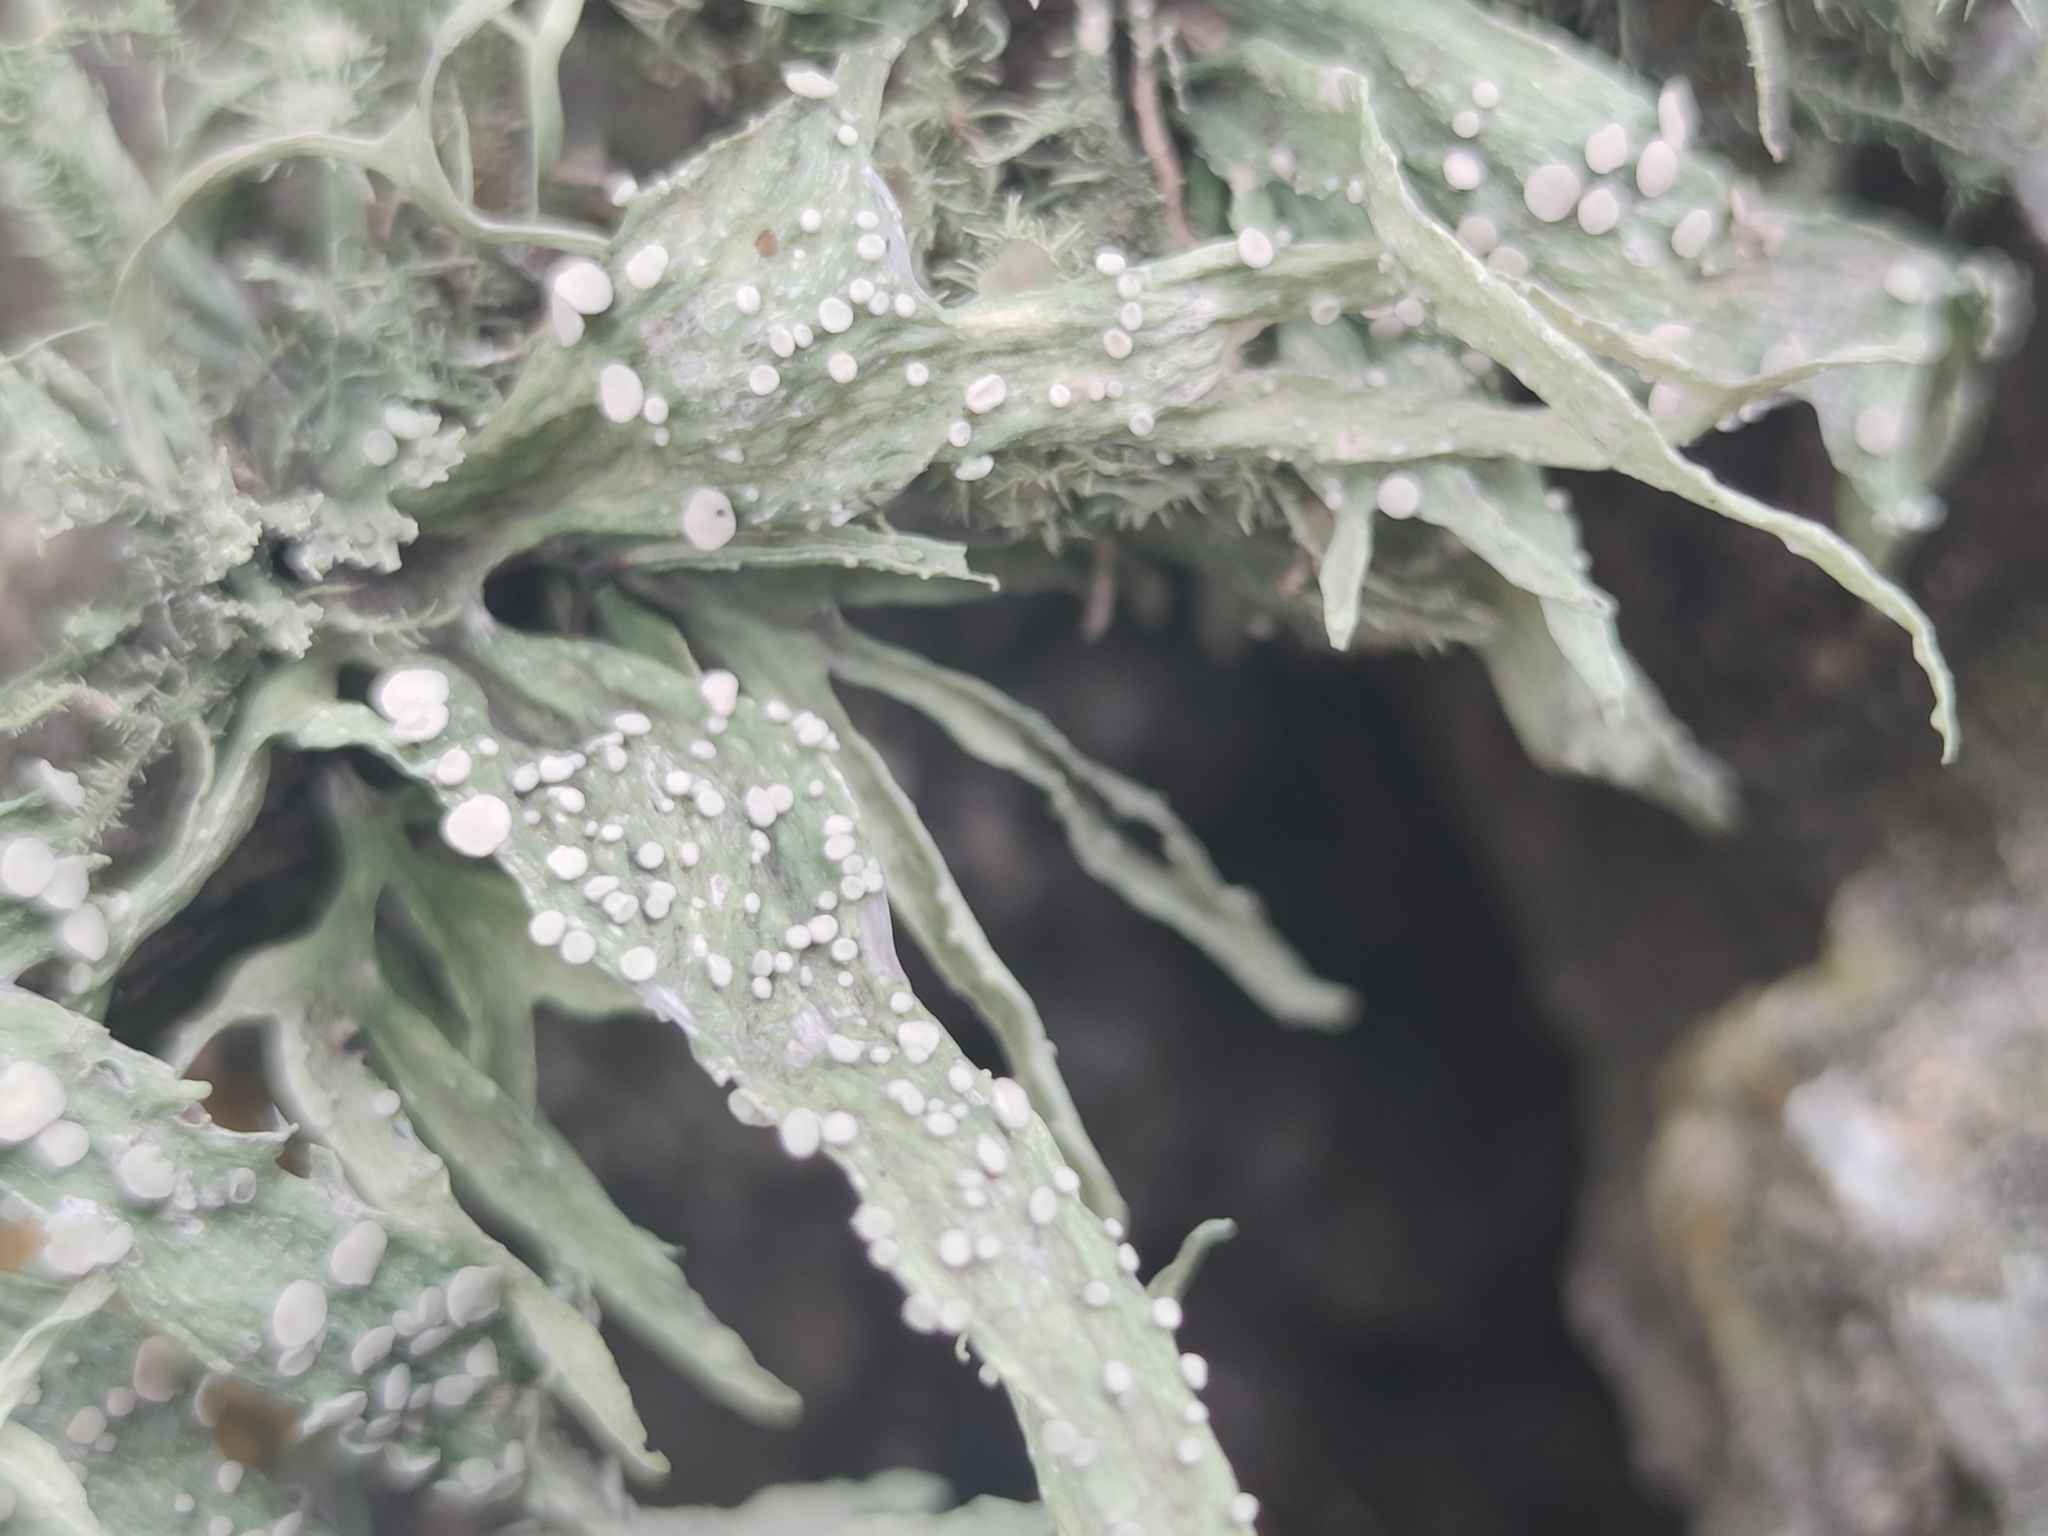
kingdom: Fungi
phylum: Ascomycota
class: Lecanoromycetes
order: Lecanorales
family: Ramalinaceae
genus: Ramalina
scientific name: Ramalina celastri
